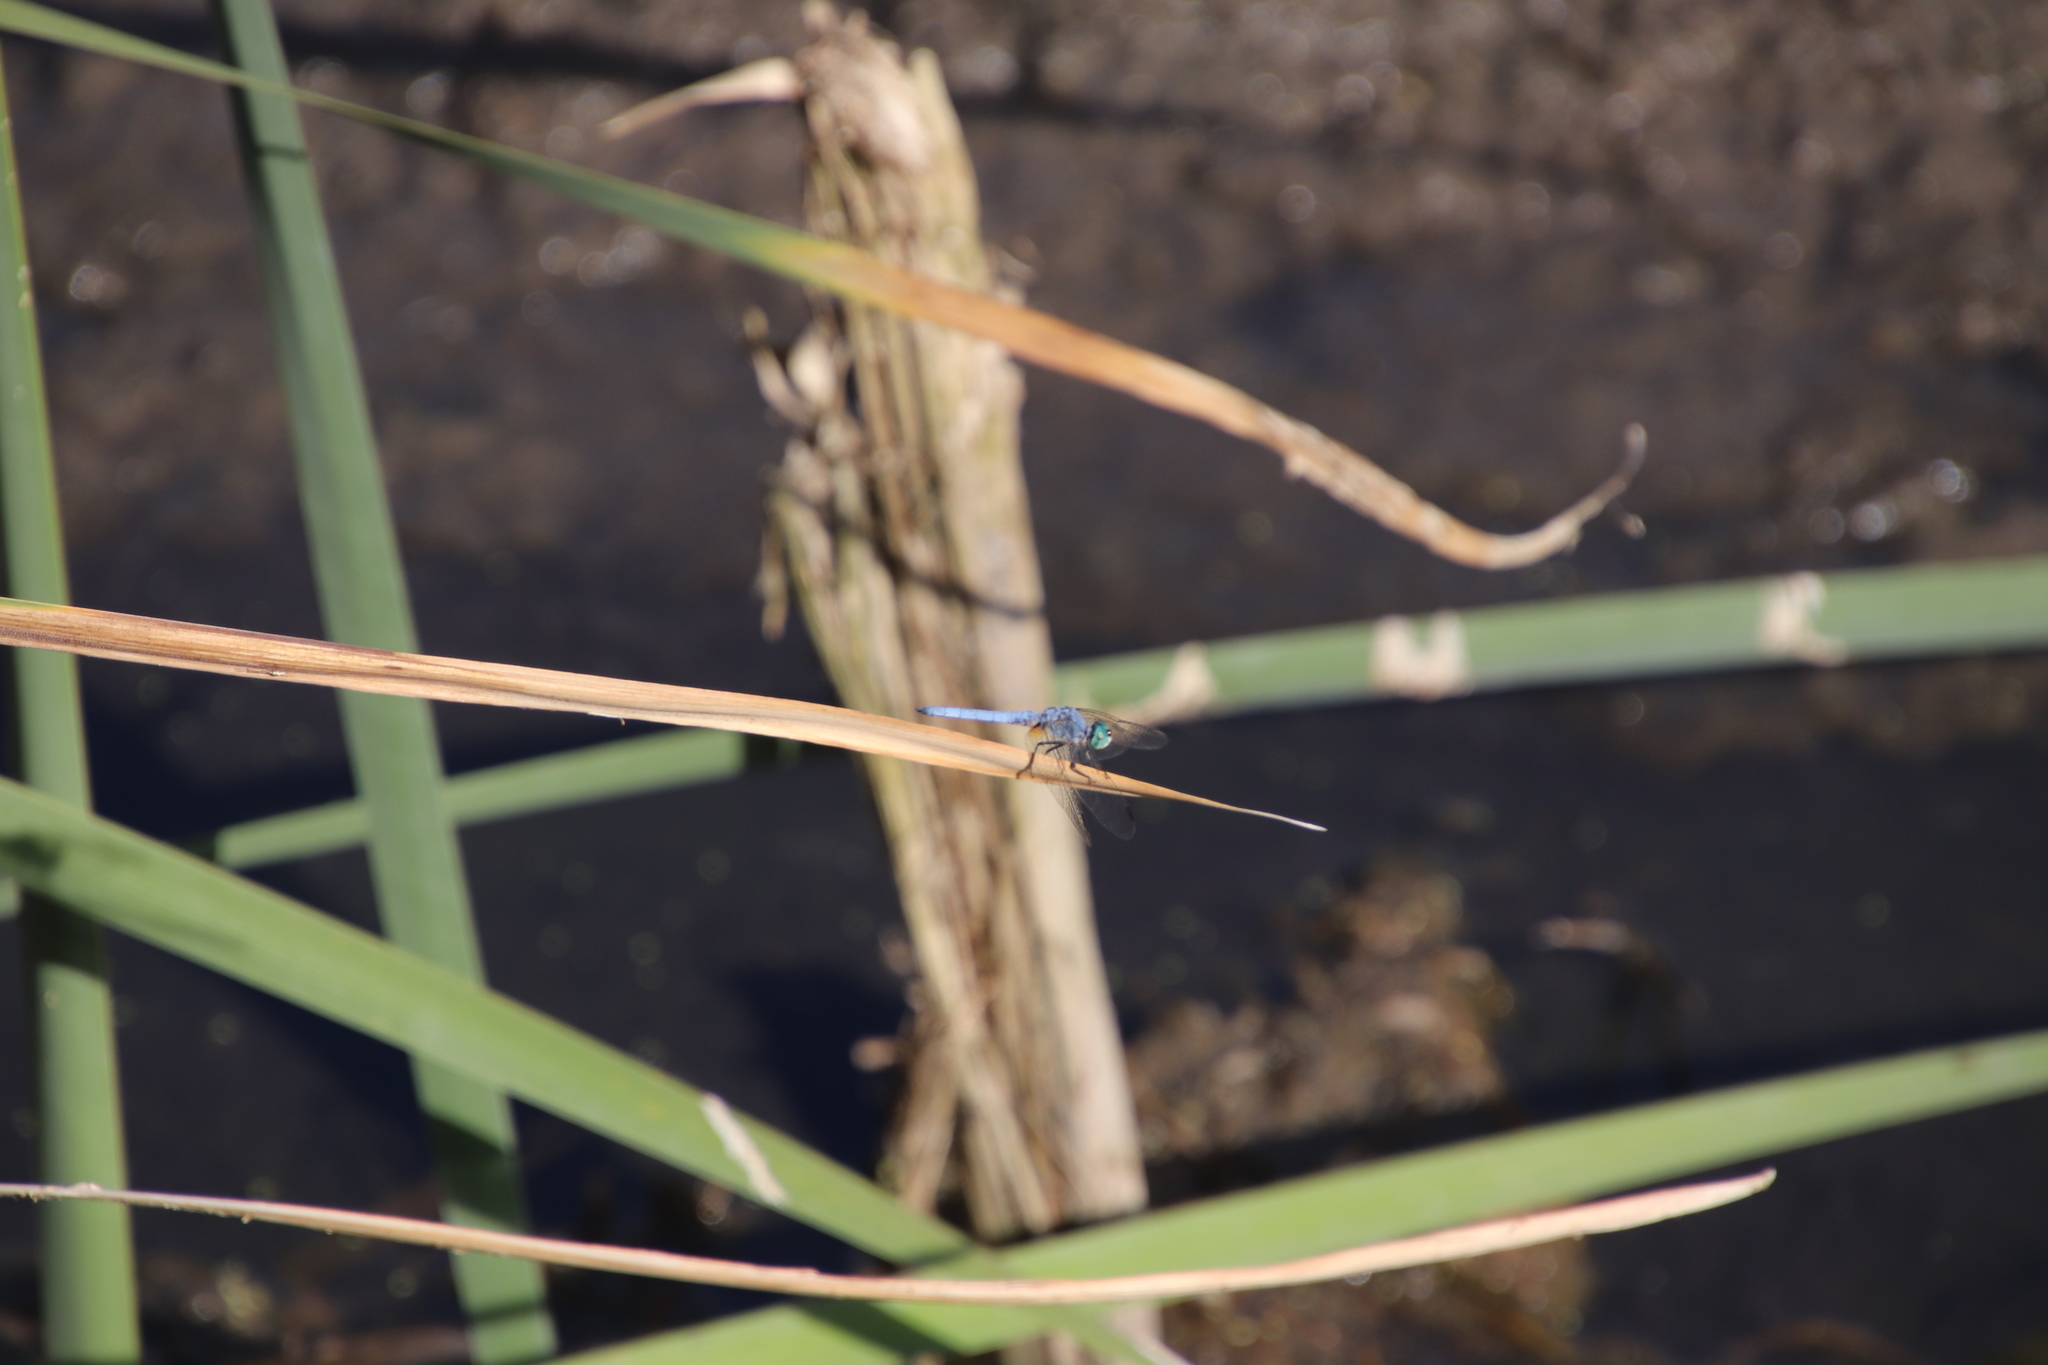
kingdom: Animalia
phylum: Arthropoda
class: Insecta
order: Odonata
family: Libellulidae
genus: Pachydiplax
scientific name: Pachydiplax longipennis
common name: Blue dasher
